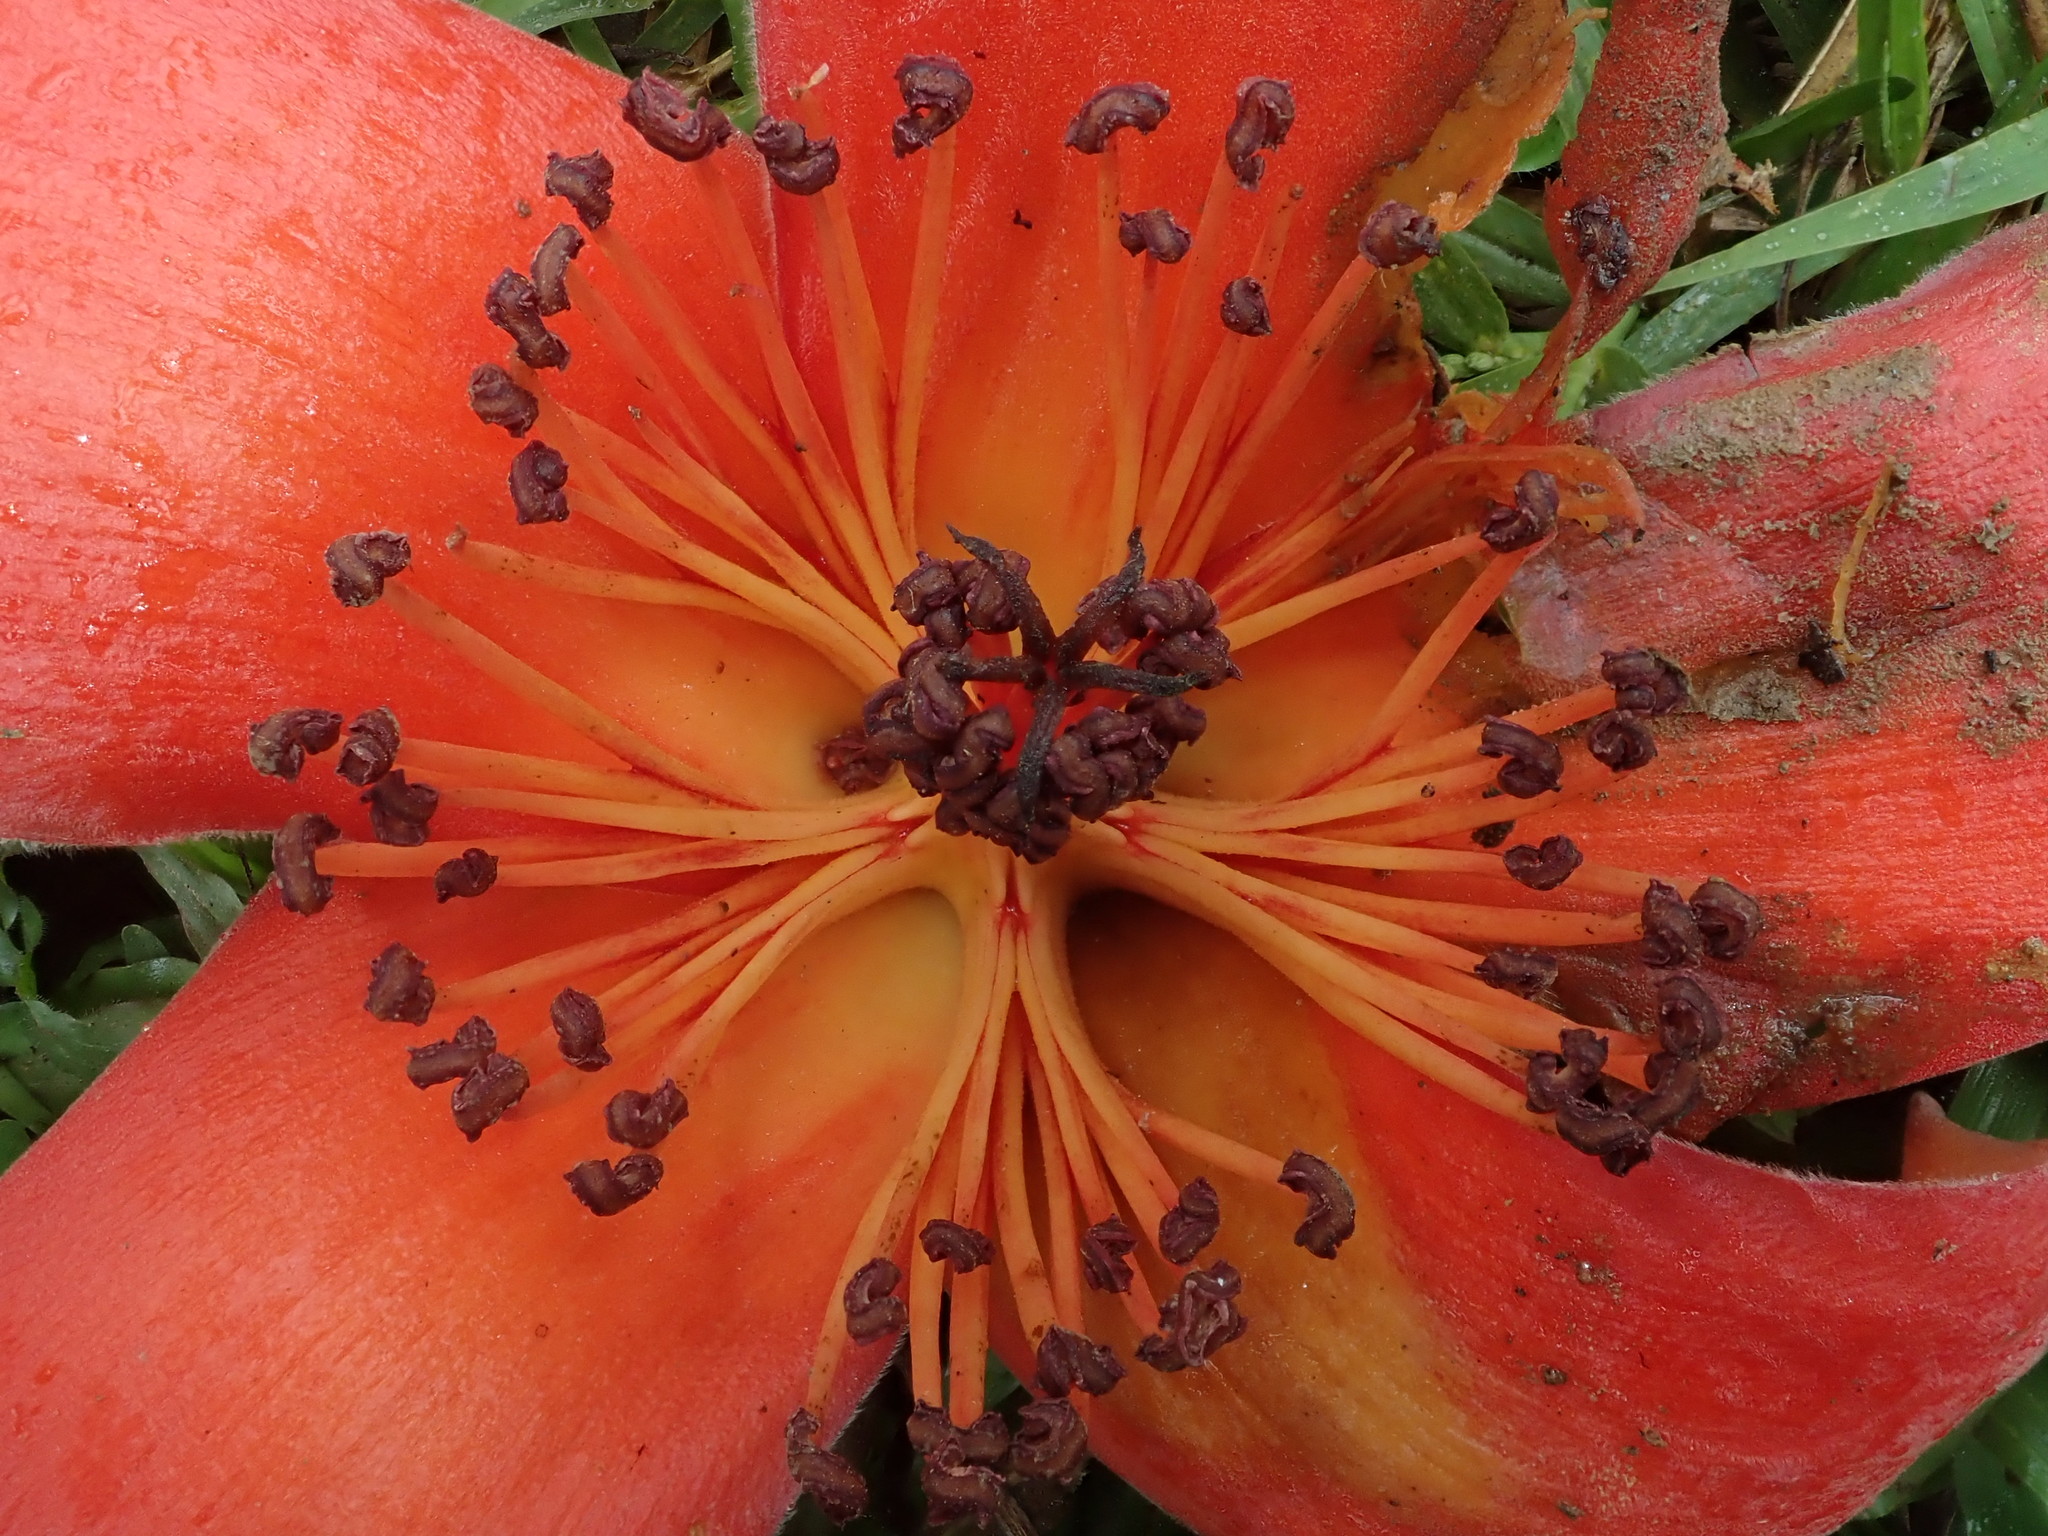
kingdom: Plantae
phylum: Tracheophyta
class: Magnoliopsida
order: Malvales
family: Malvaceae
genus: Bombax
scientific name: Bombax ceiba
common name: Northern-cottonwood
